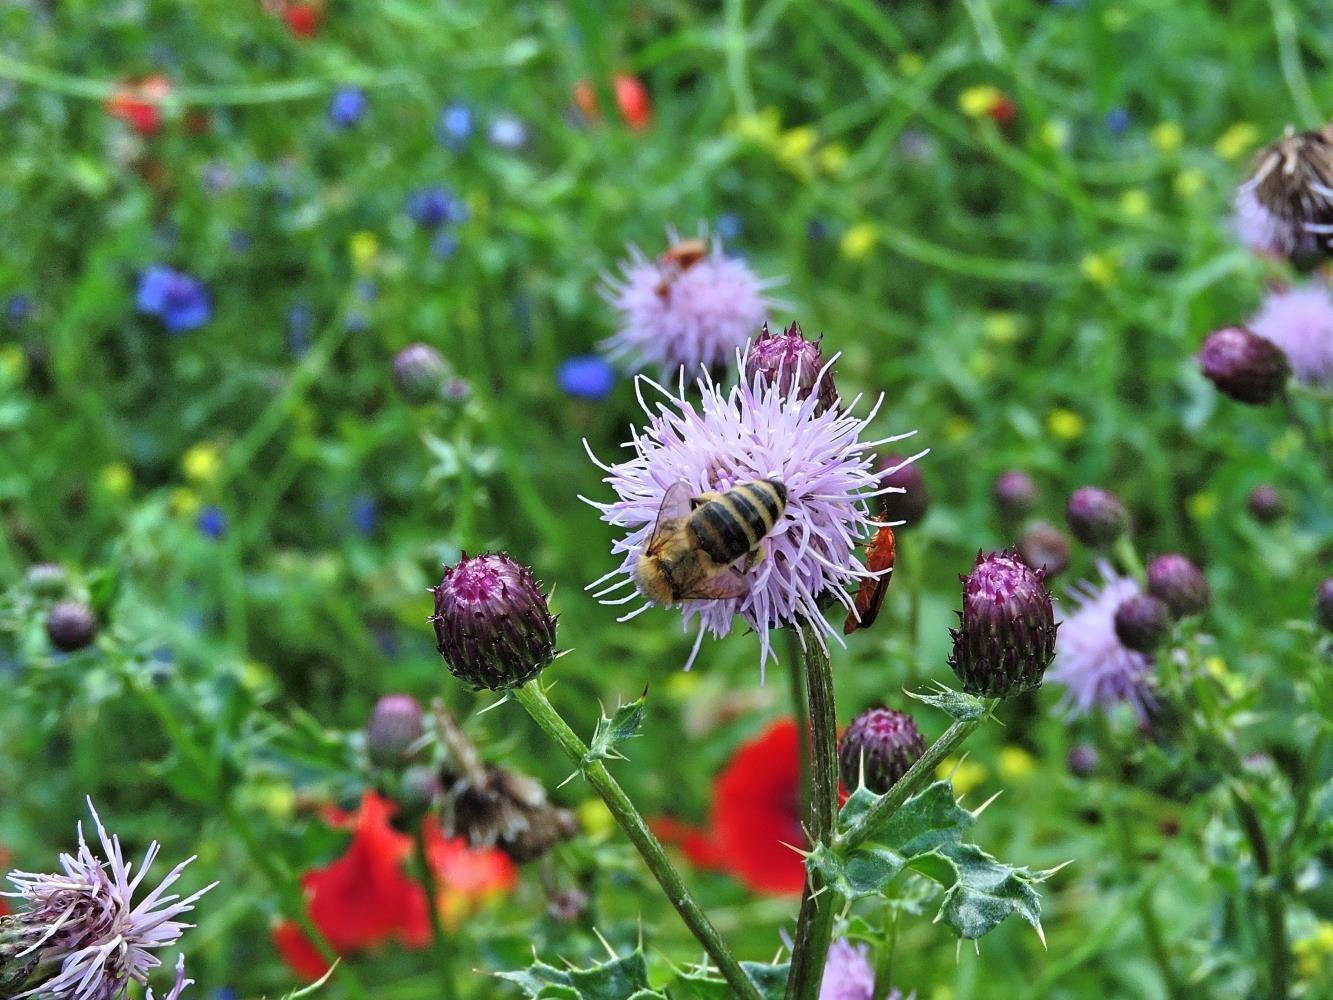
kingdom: Animalia
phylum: Arthropoda
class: Insecta
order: Hymenoptera
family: Apidae
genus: Apis
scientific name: Apis mellifera
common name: Honey bee
